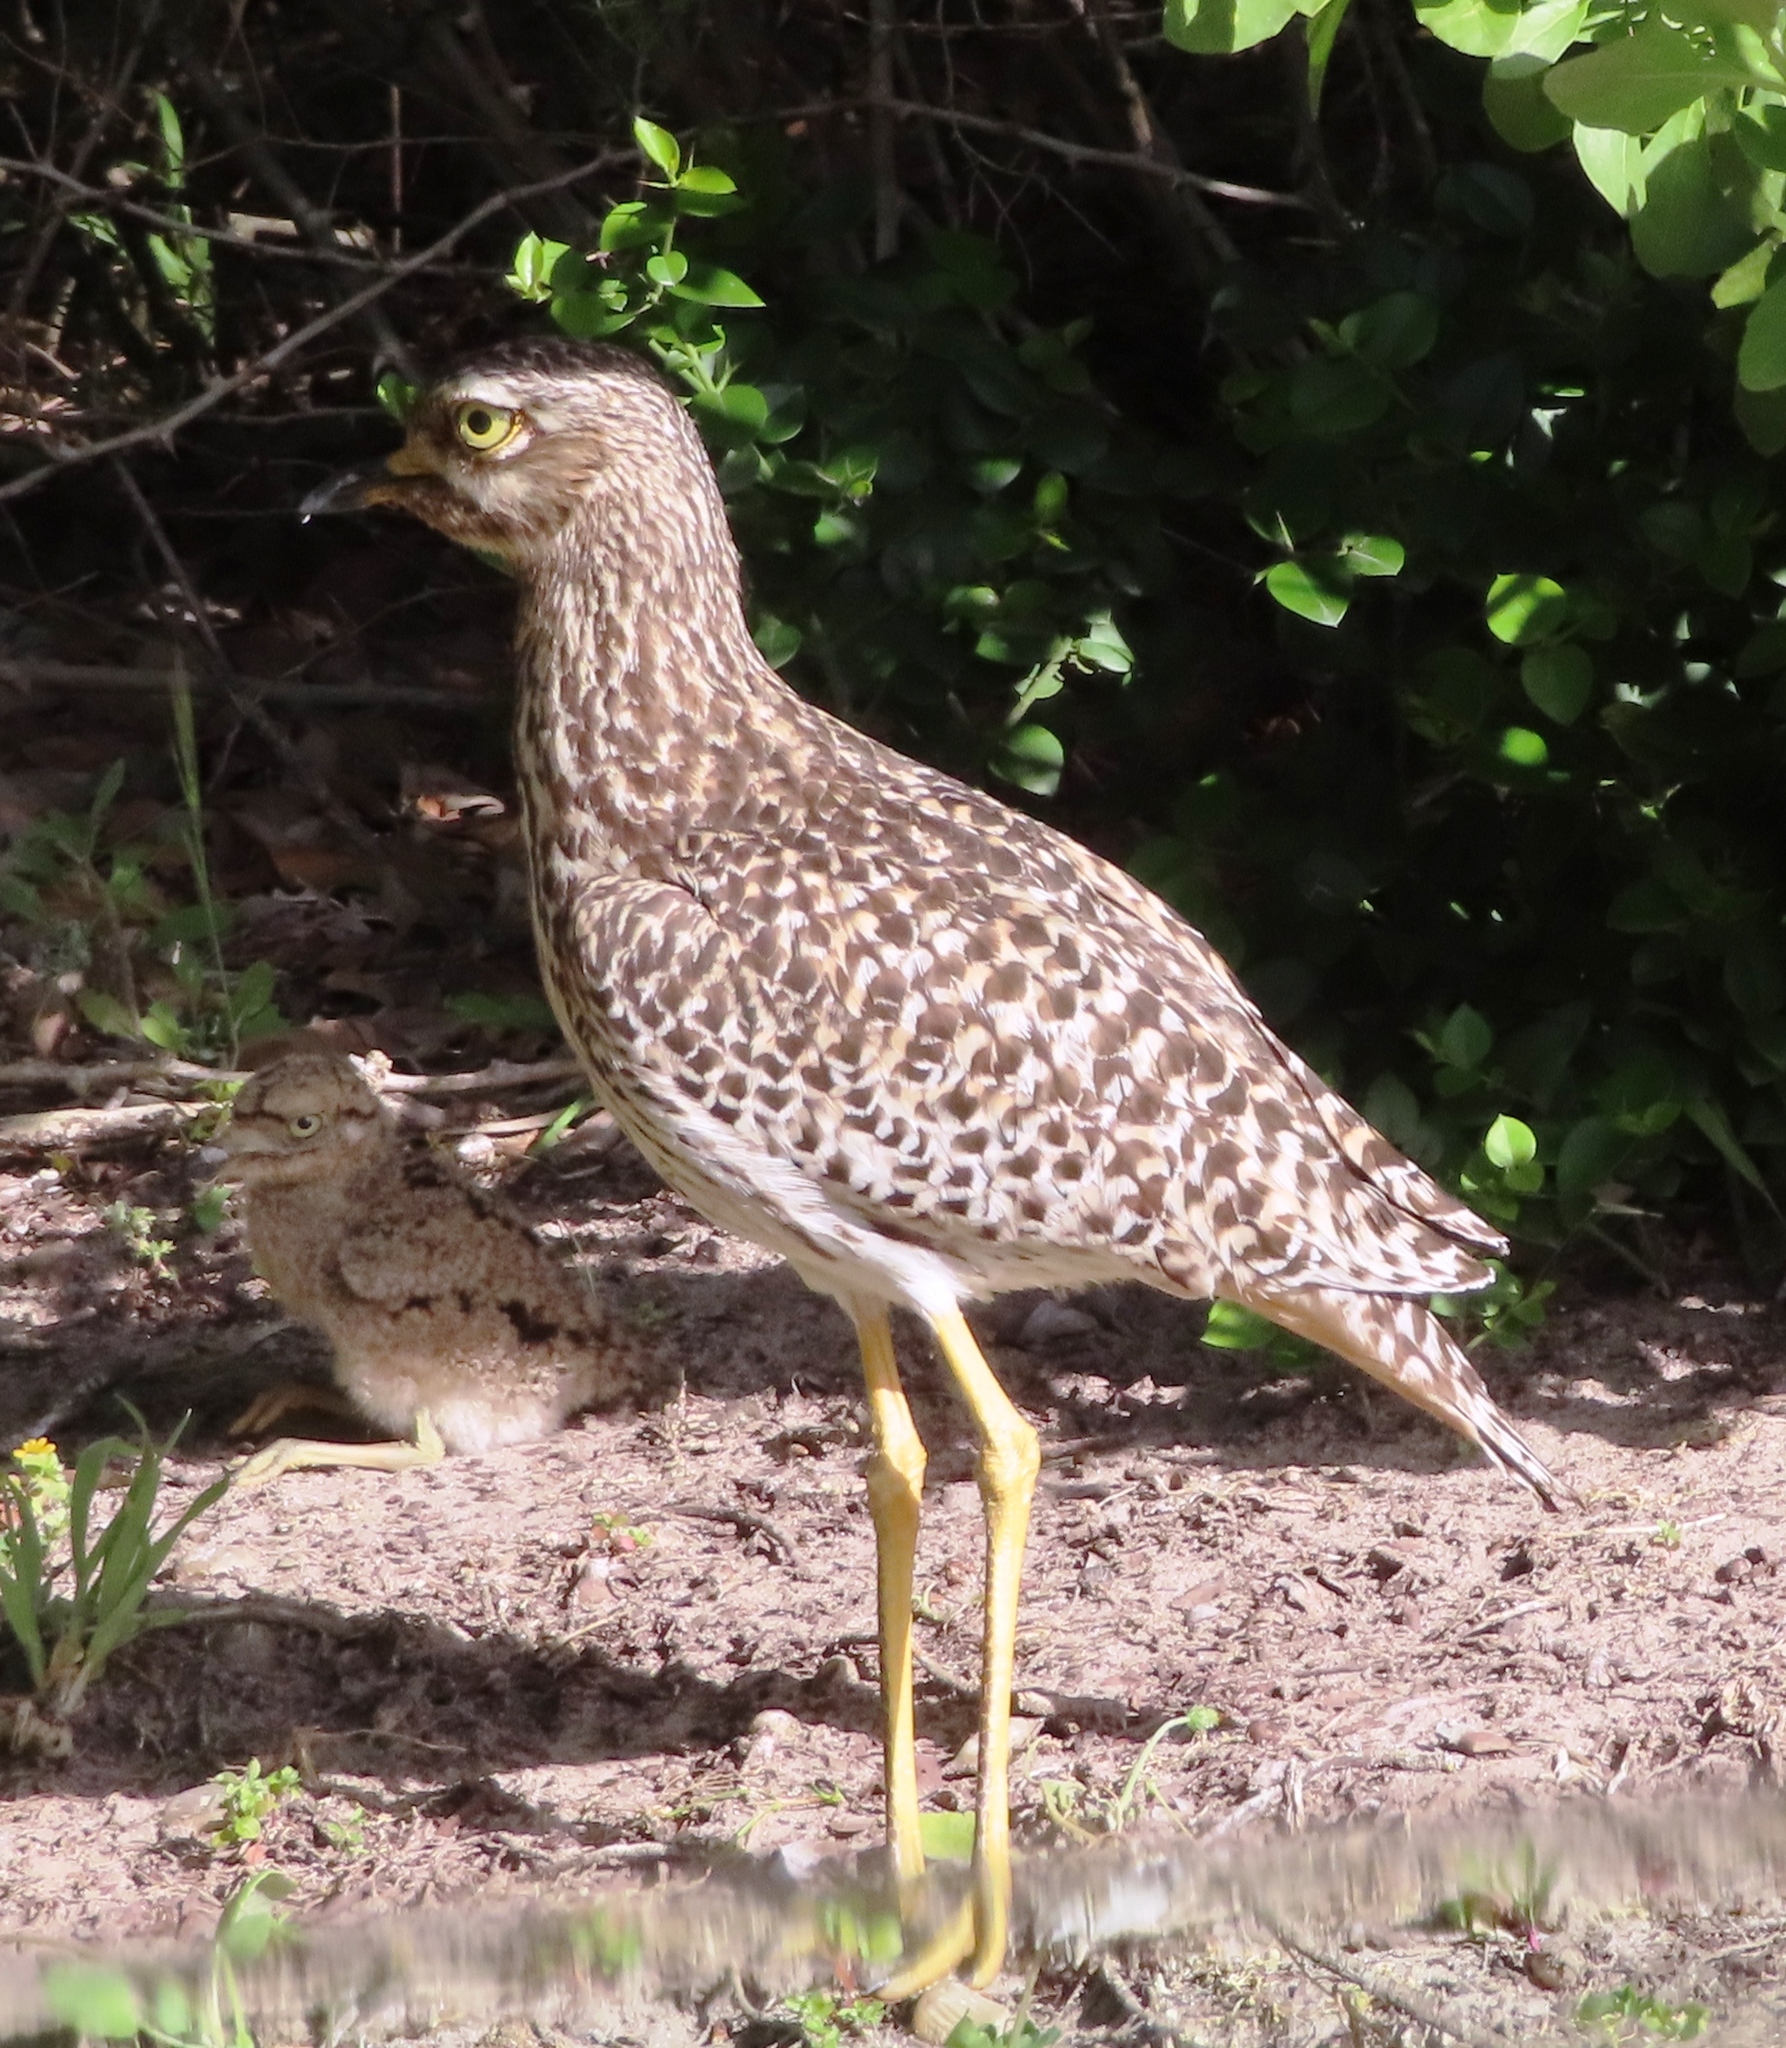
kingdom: Animalia
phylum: Chordata
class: Aves
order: Charadriiformes
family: Burhinidae
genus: Burhinus
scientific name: Burhinus capensis
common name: Spotted thick-knee
